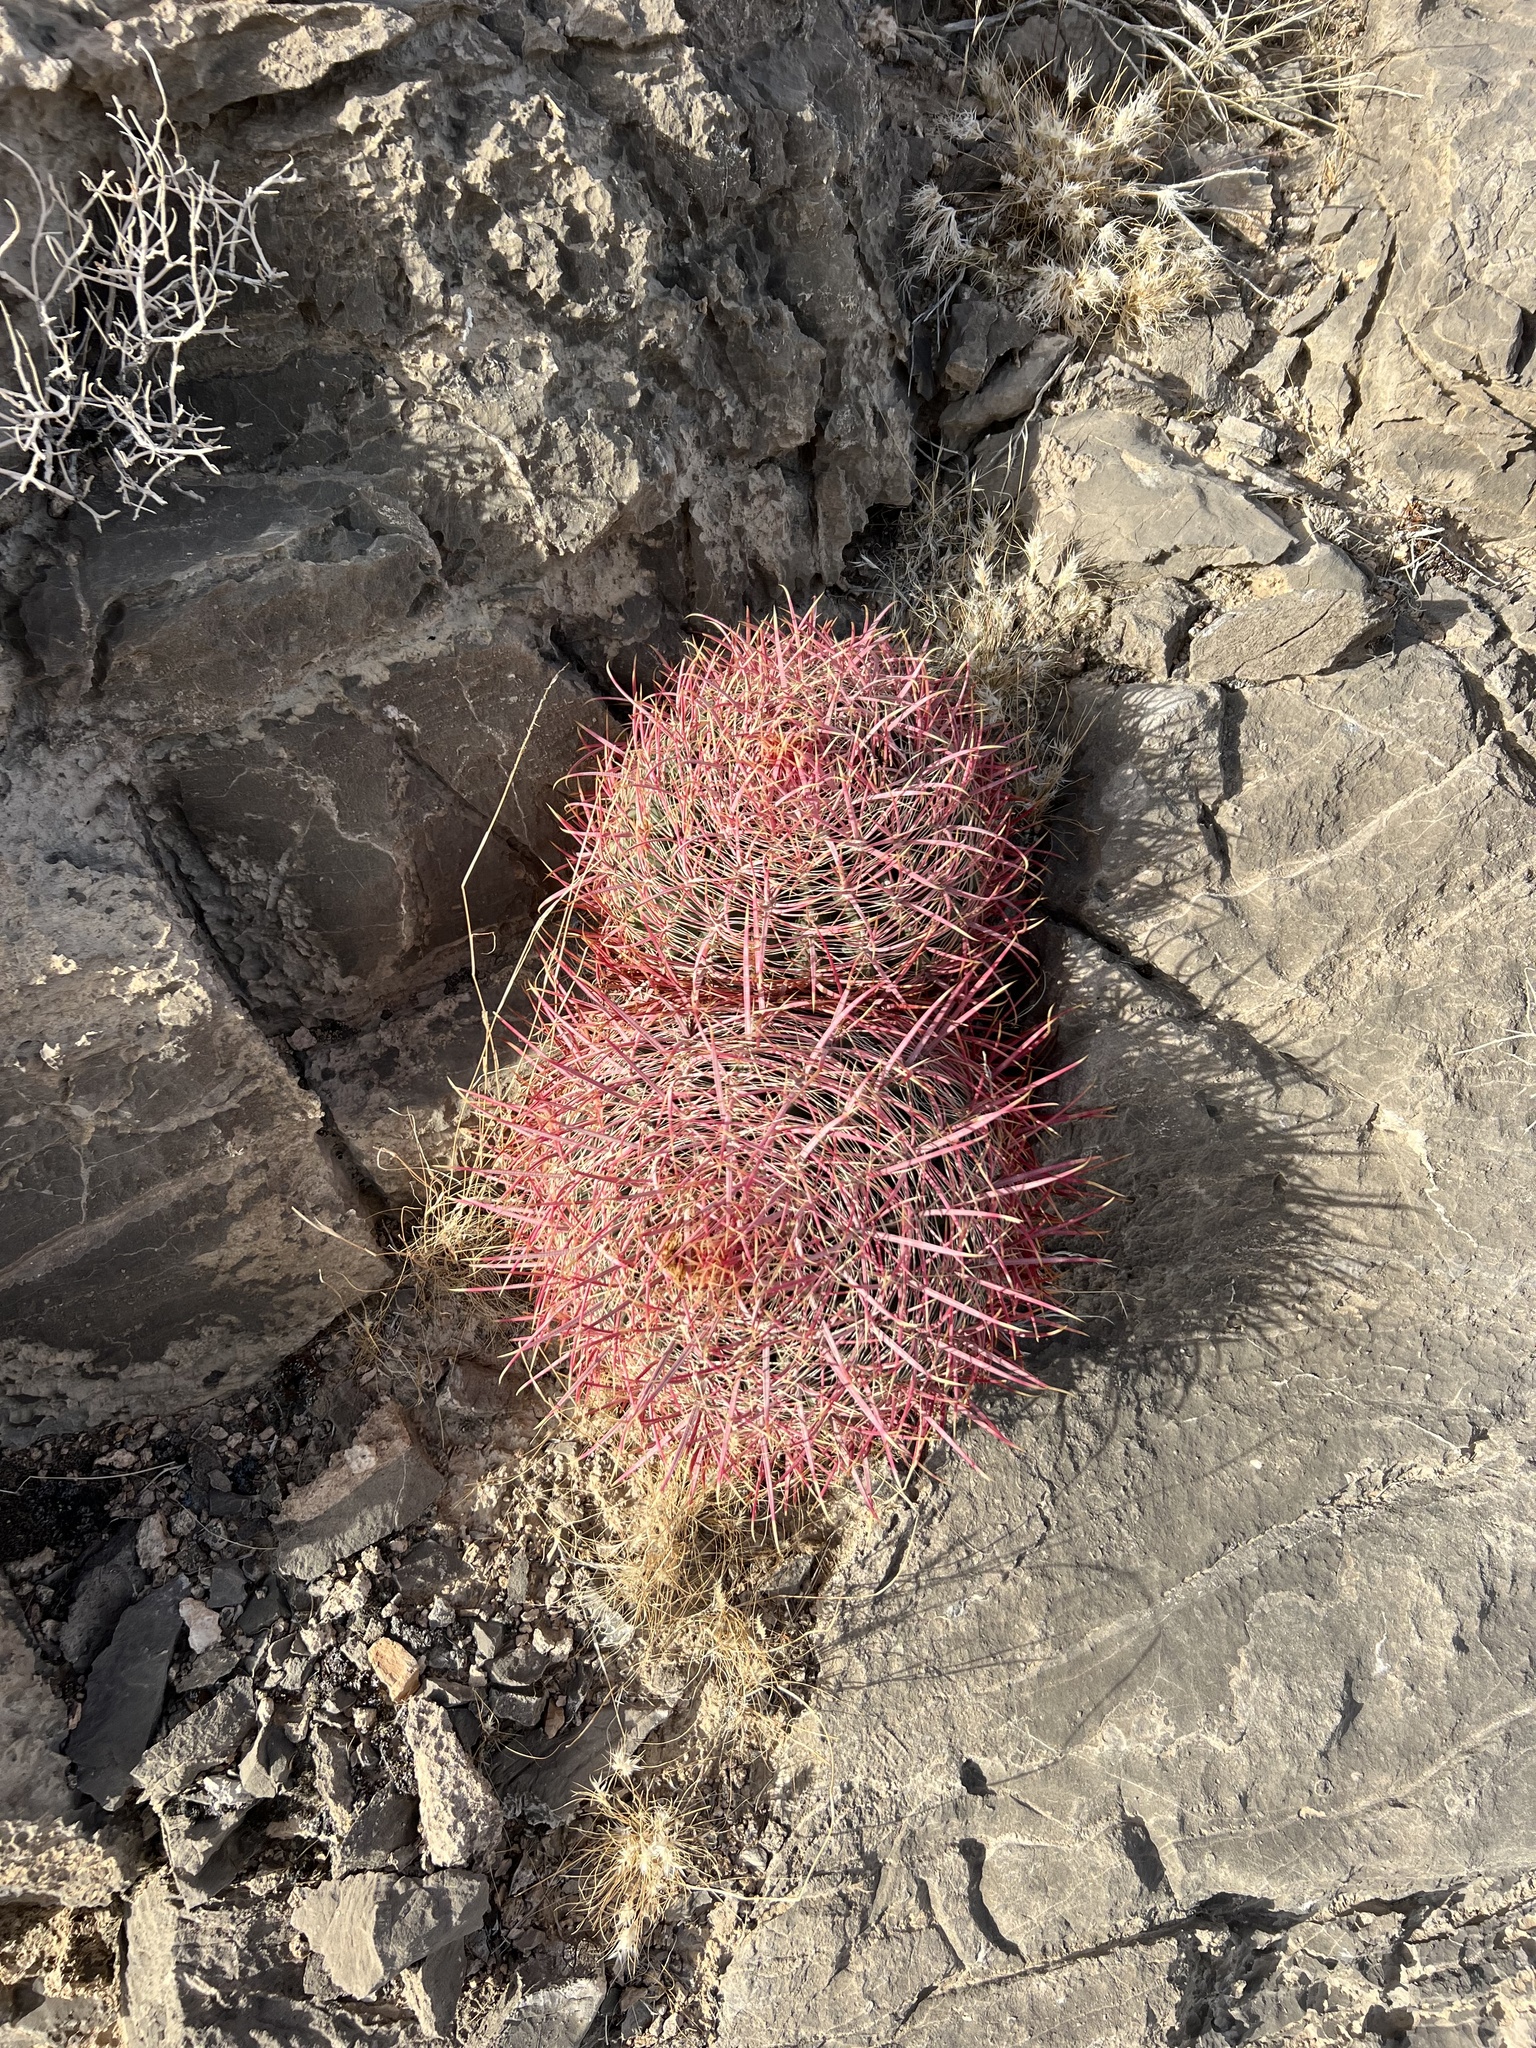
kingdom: Plantae
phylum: Tracheophyta
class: Magnoliopsida
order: Caryophyllales
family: Cactaceae
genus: Ferocactus
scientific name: Ferocactus cylindraceus
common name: California barrel cactus
